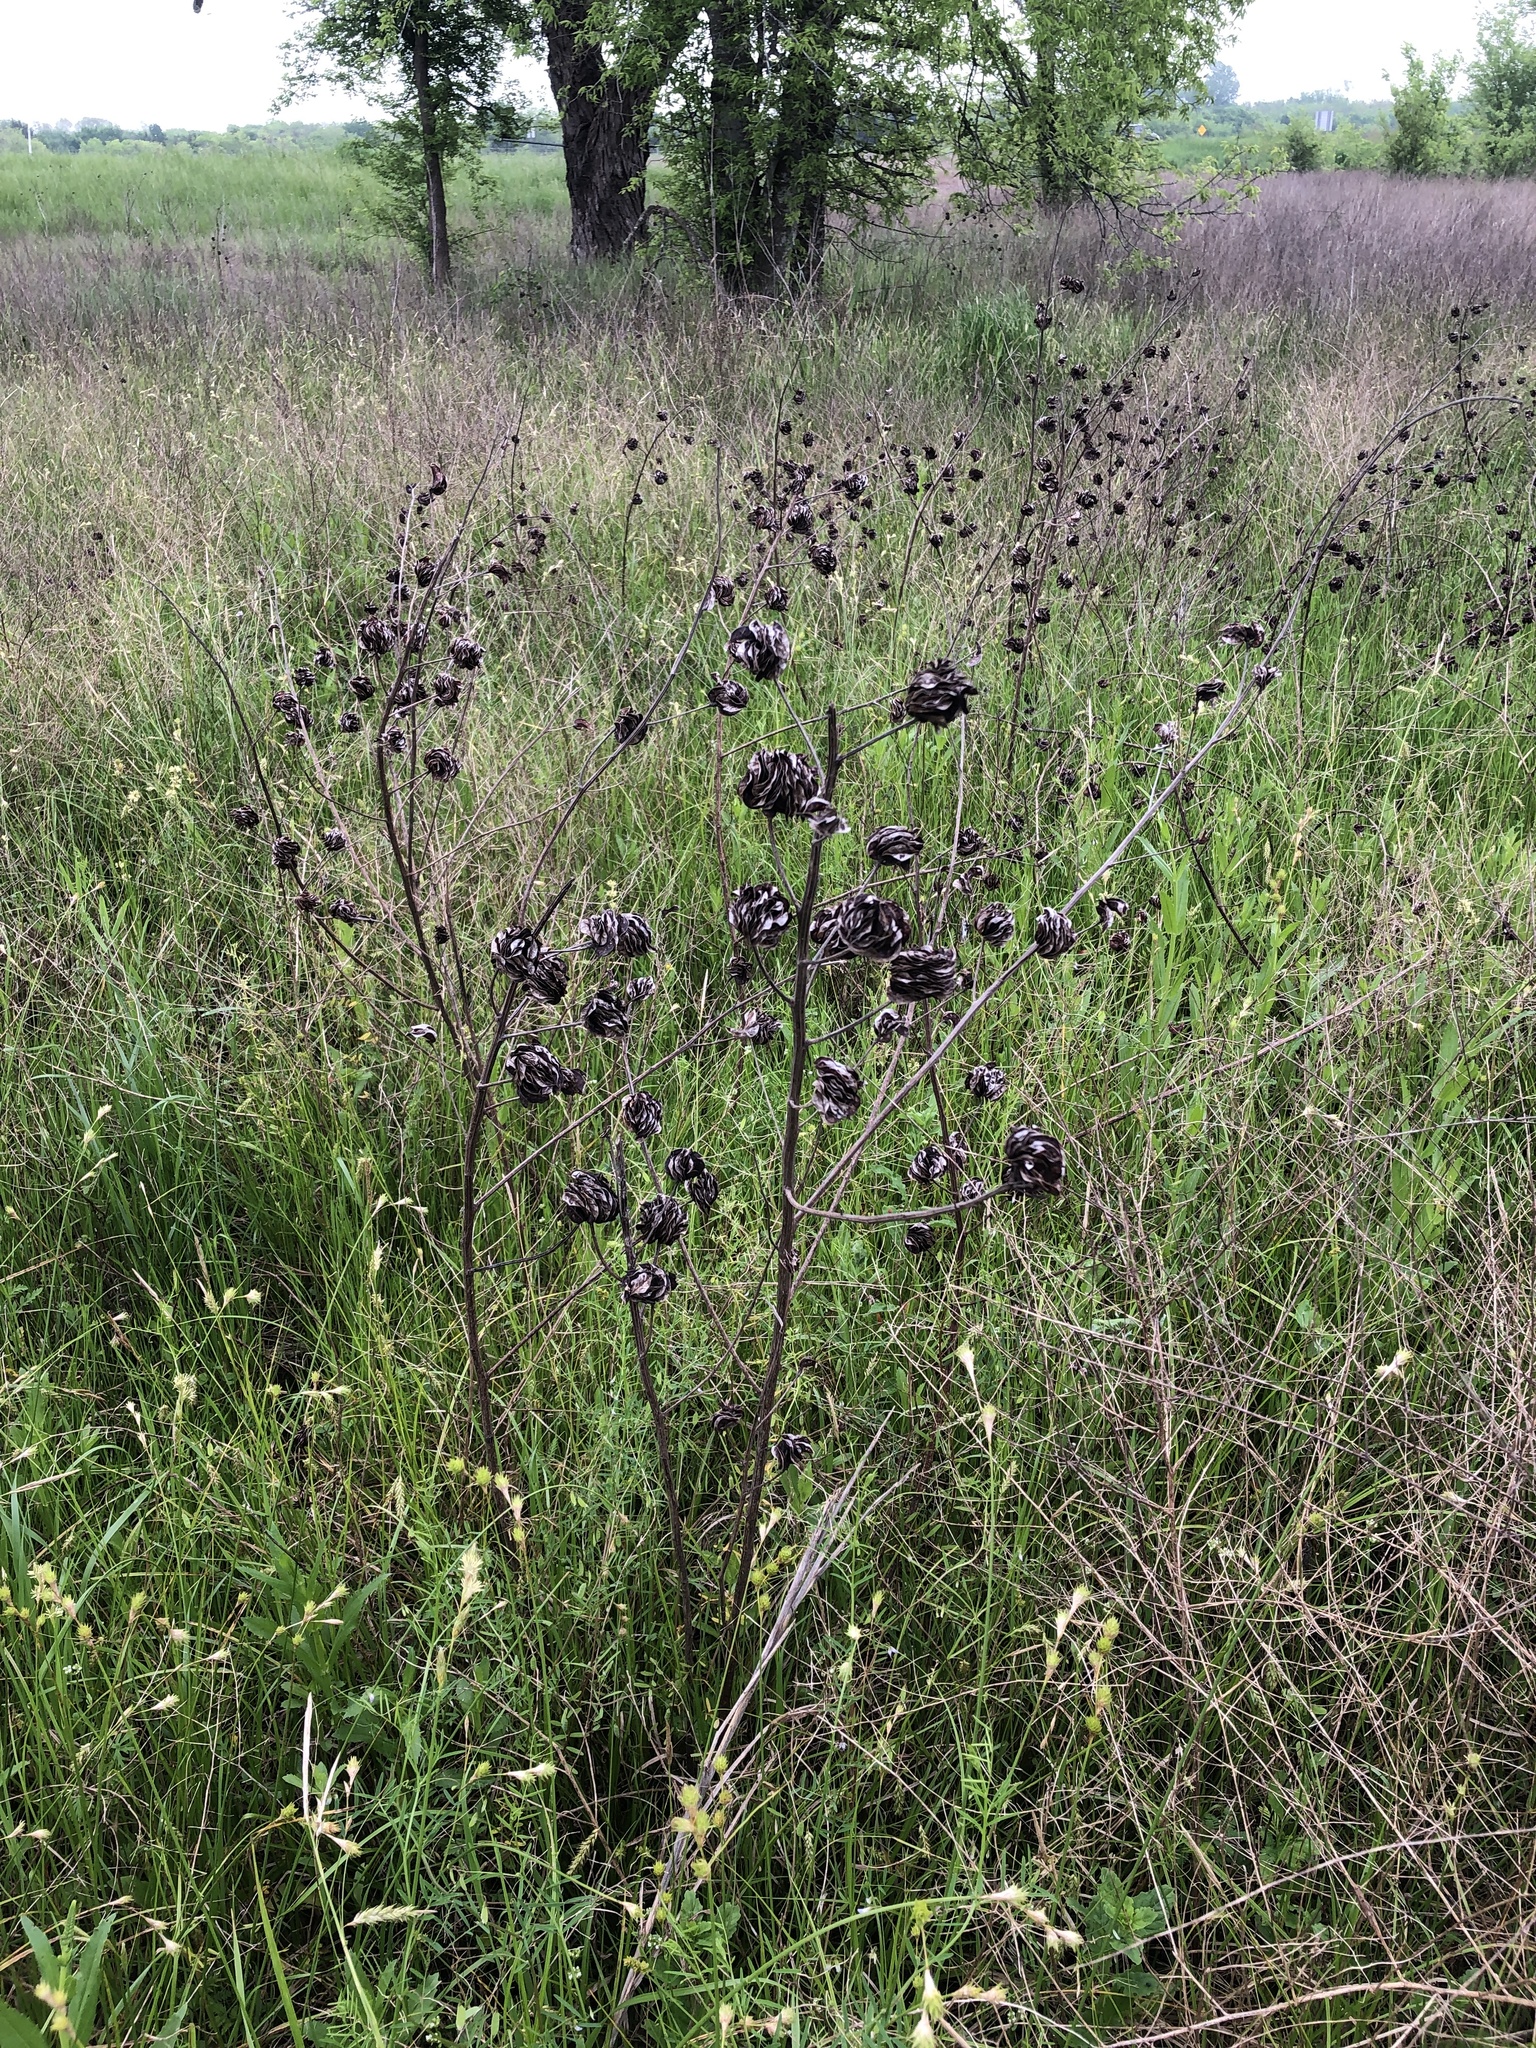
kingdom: Plantae
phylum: Tracheophyta
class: Magnoliopsida
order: Fabales
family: Fabaceae
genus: Desmanthus
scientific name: Desmanthus illinoensis
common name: Illinois bundle-flower
